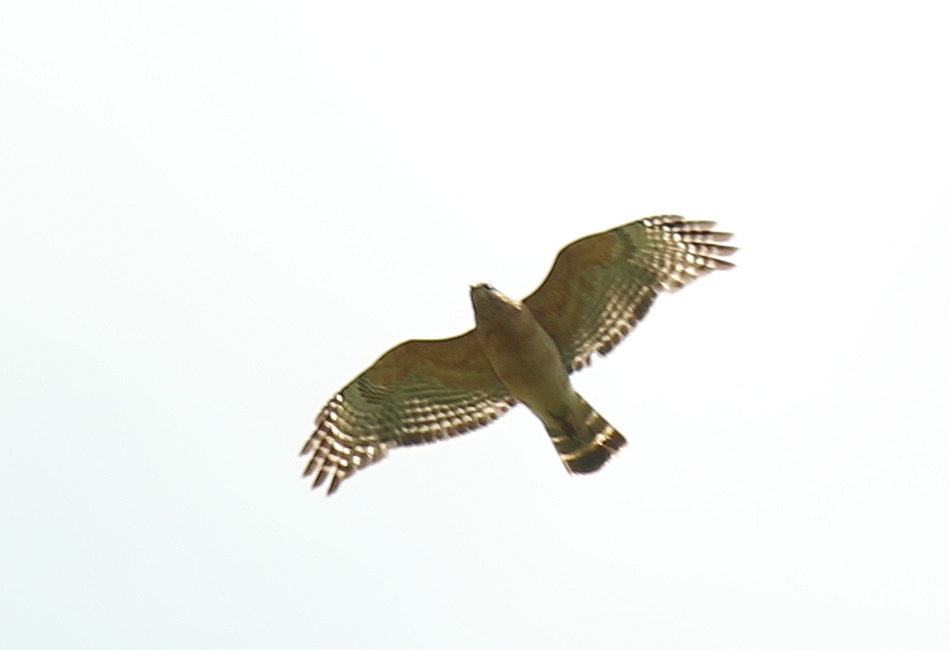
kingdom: Animalia
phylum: Chordata
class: Aves
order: Accipitriformes
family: Accipitridae
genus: Buteo
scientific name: Buteo lineatus
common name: Red-shouldered hawk
